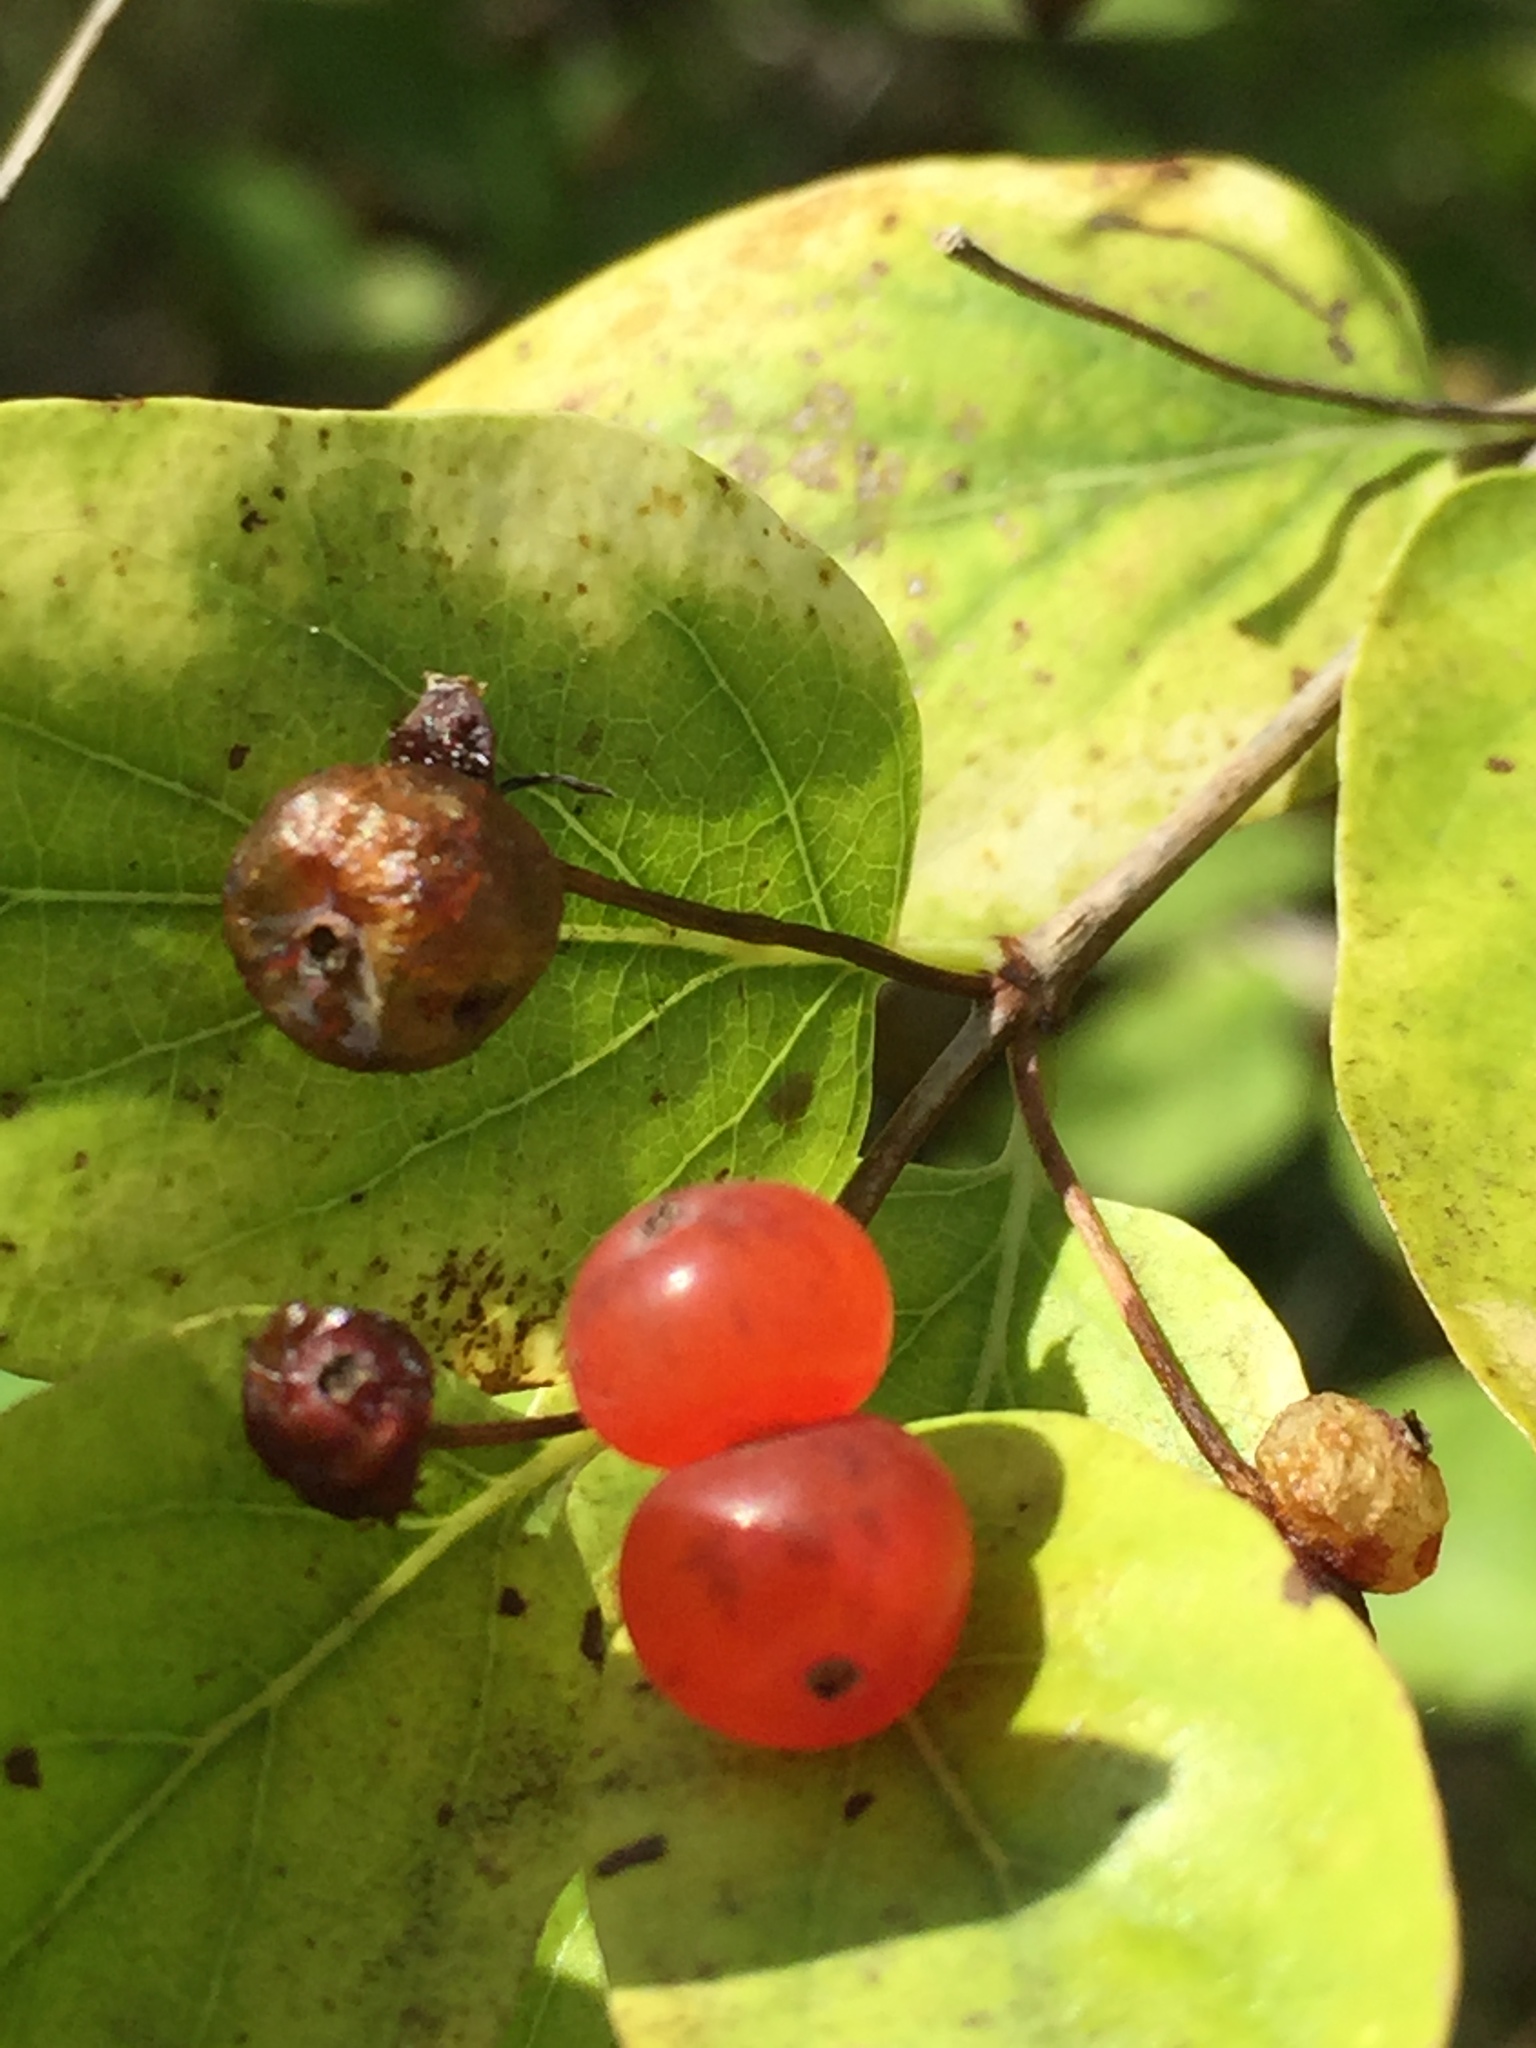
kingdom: Plantae
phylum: Tracheophyta
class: Magnoliopsida
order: Dipsacales
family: Caprifoliaceae
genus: Lonicera
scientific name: Lonicera tatarica
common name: Tatarian honeysuckle
